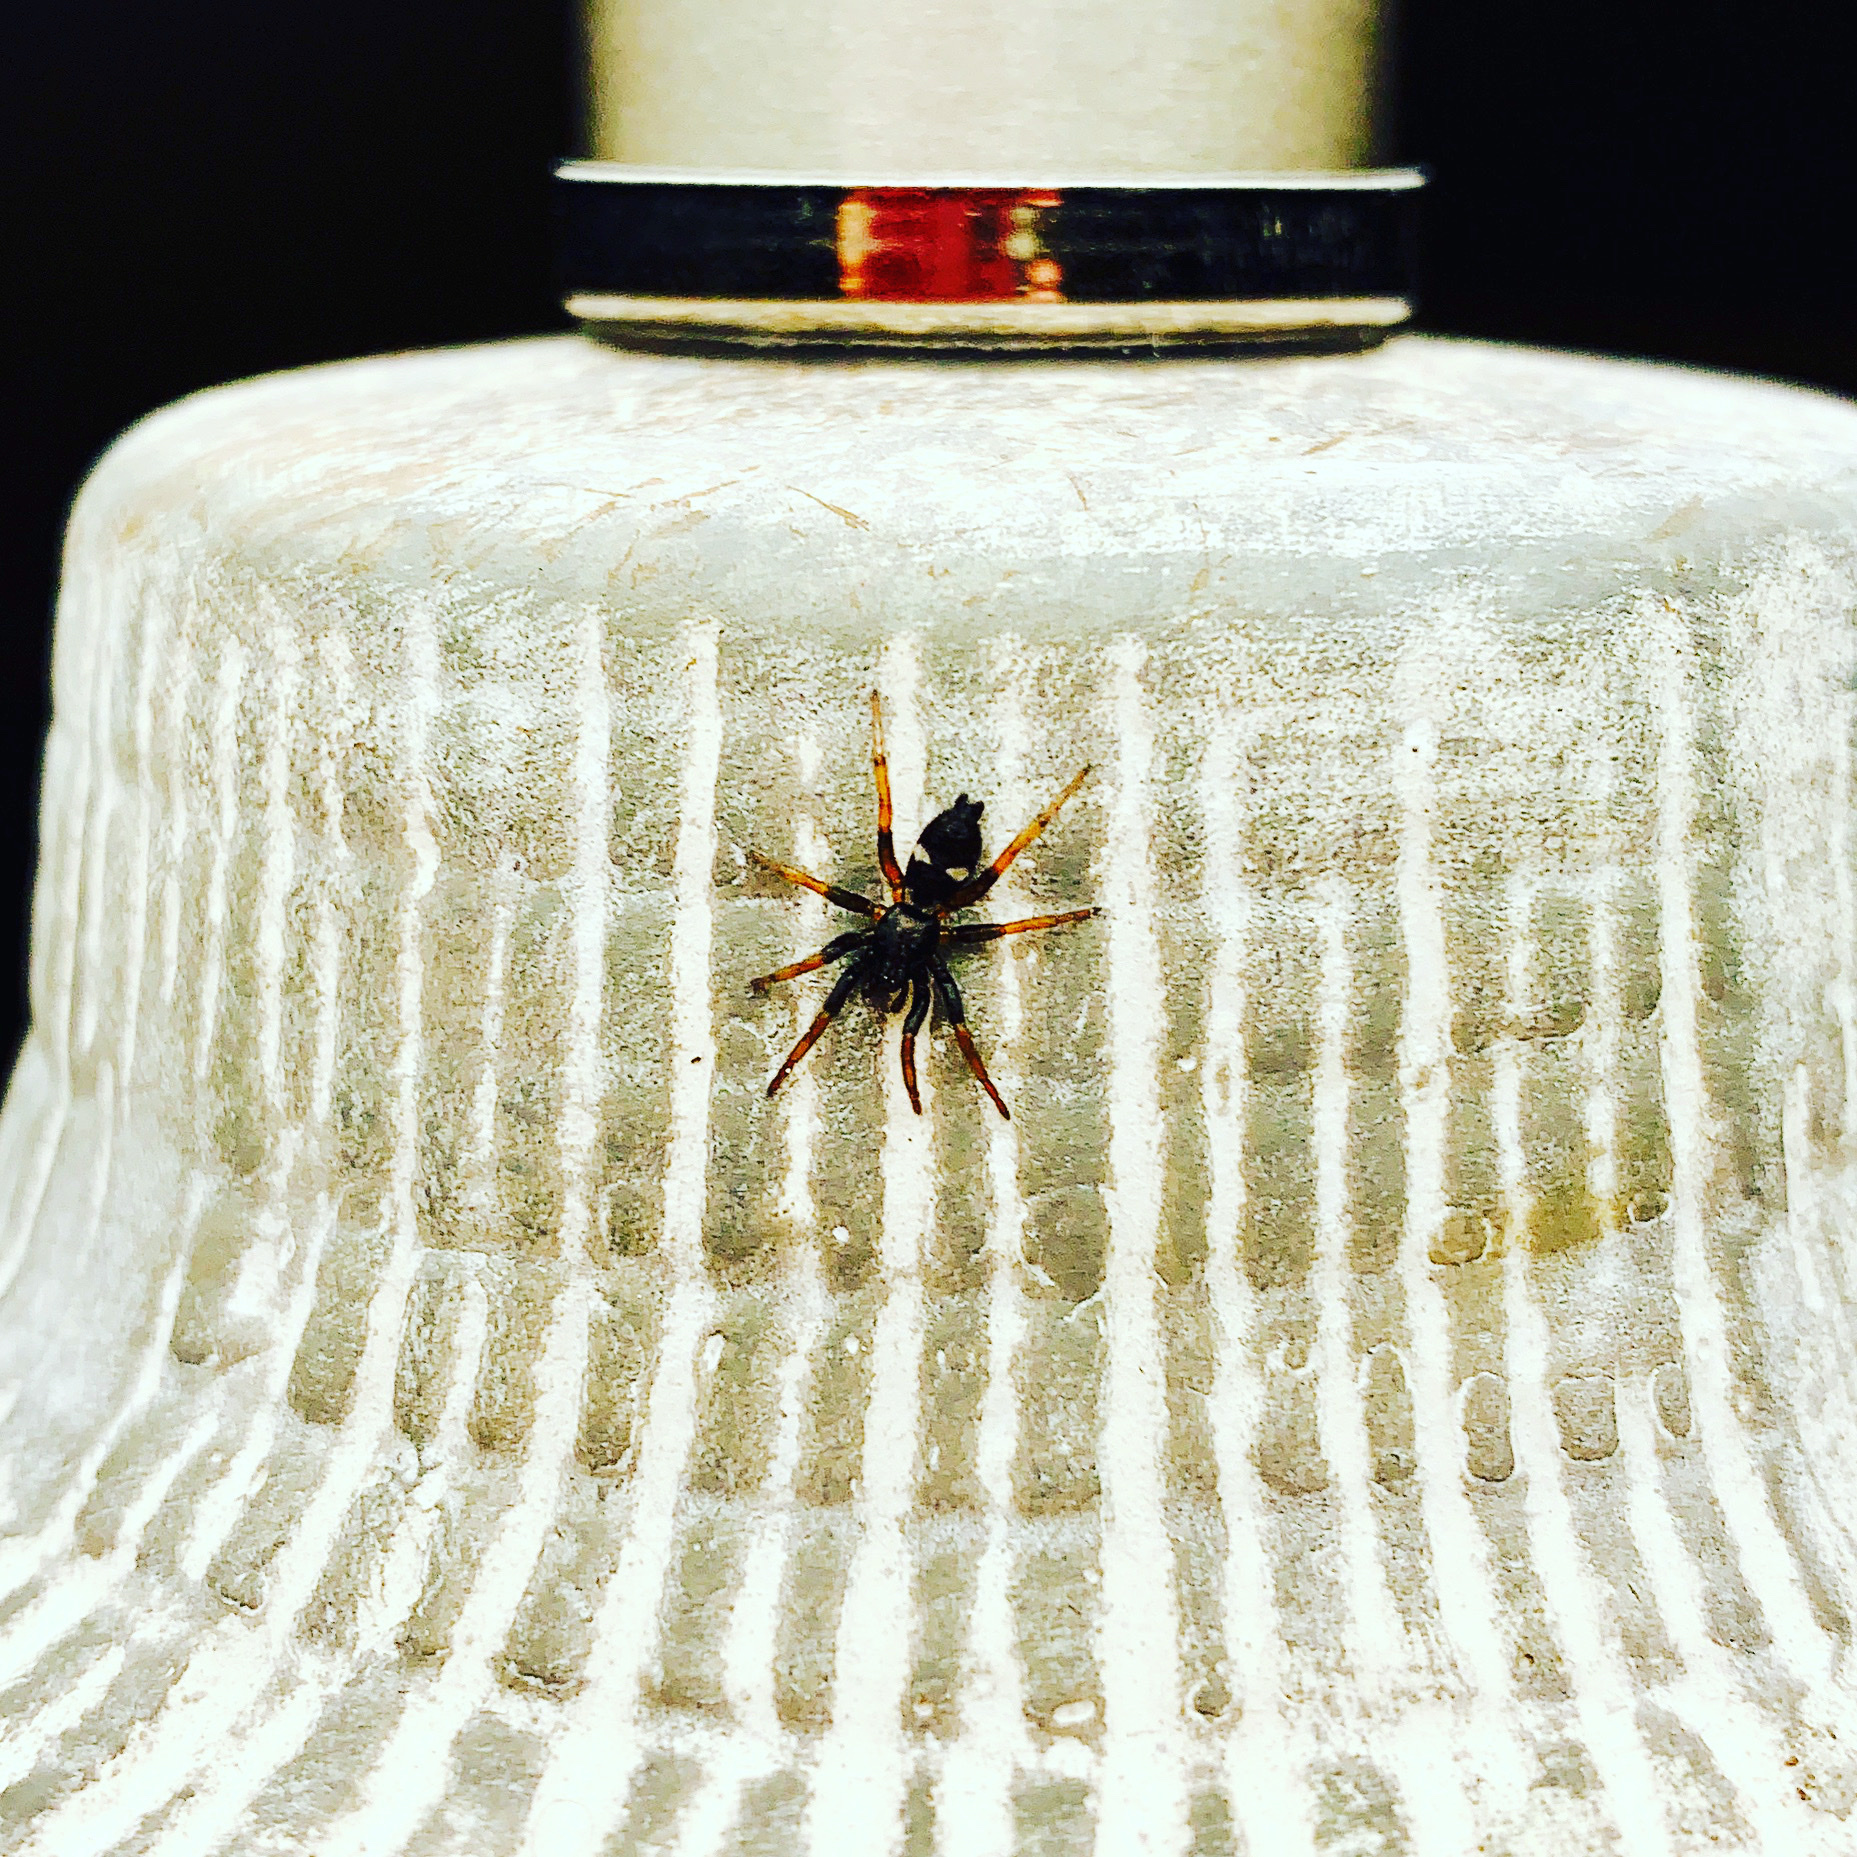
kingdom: Animalia
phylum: Arthropoda
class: Arachnida
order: Araneae
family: Gnaphosidae
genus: Sergiolus
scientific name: Sergiolus montanus
